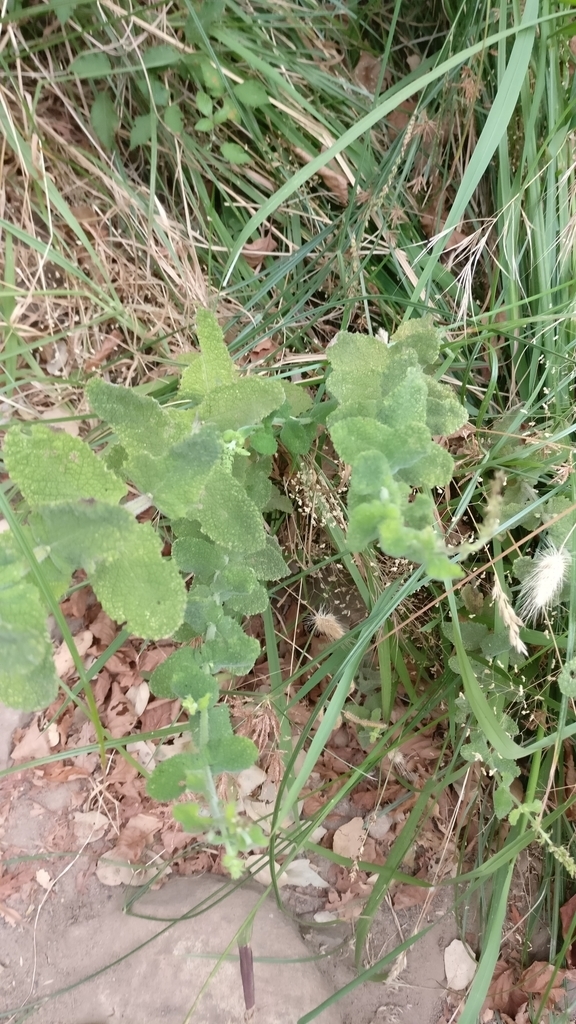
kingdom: Plantae
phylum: Tracheophyta
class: Magnoliopsida
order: Lamiales
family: Lamiaceae
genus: Teucrium
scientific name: Teucrium scorodonia
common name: Woodland germander
